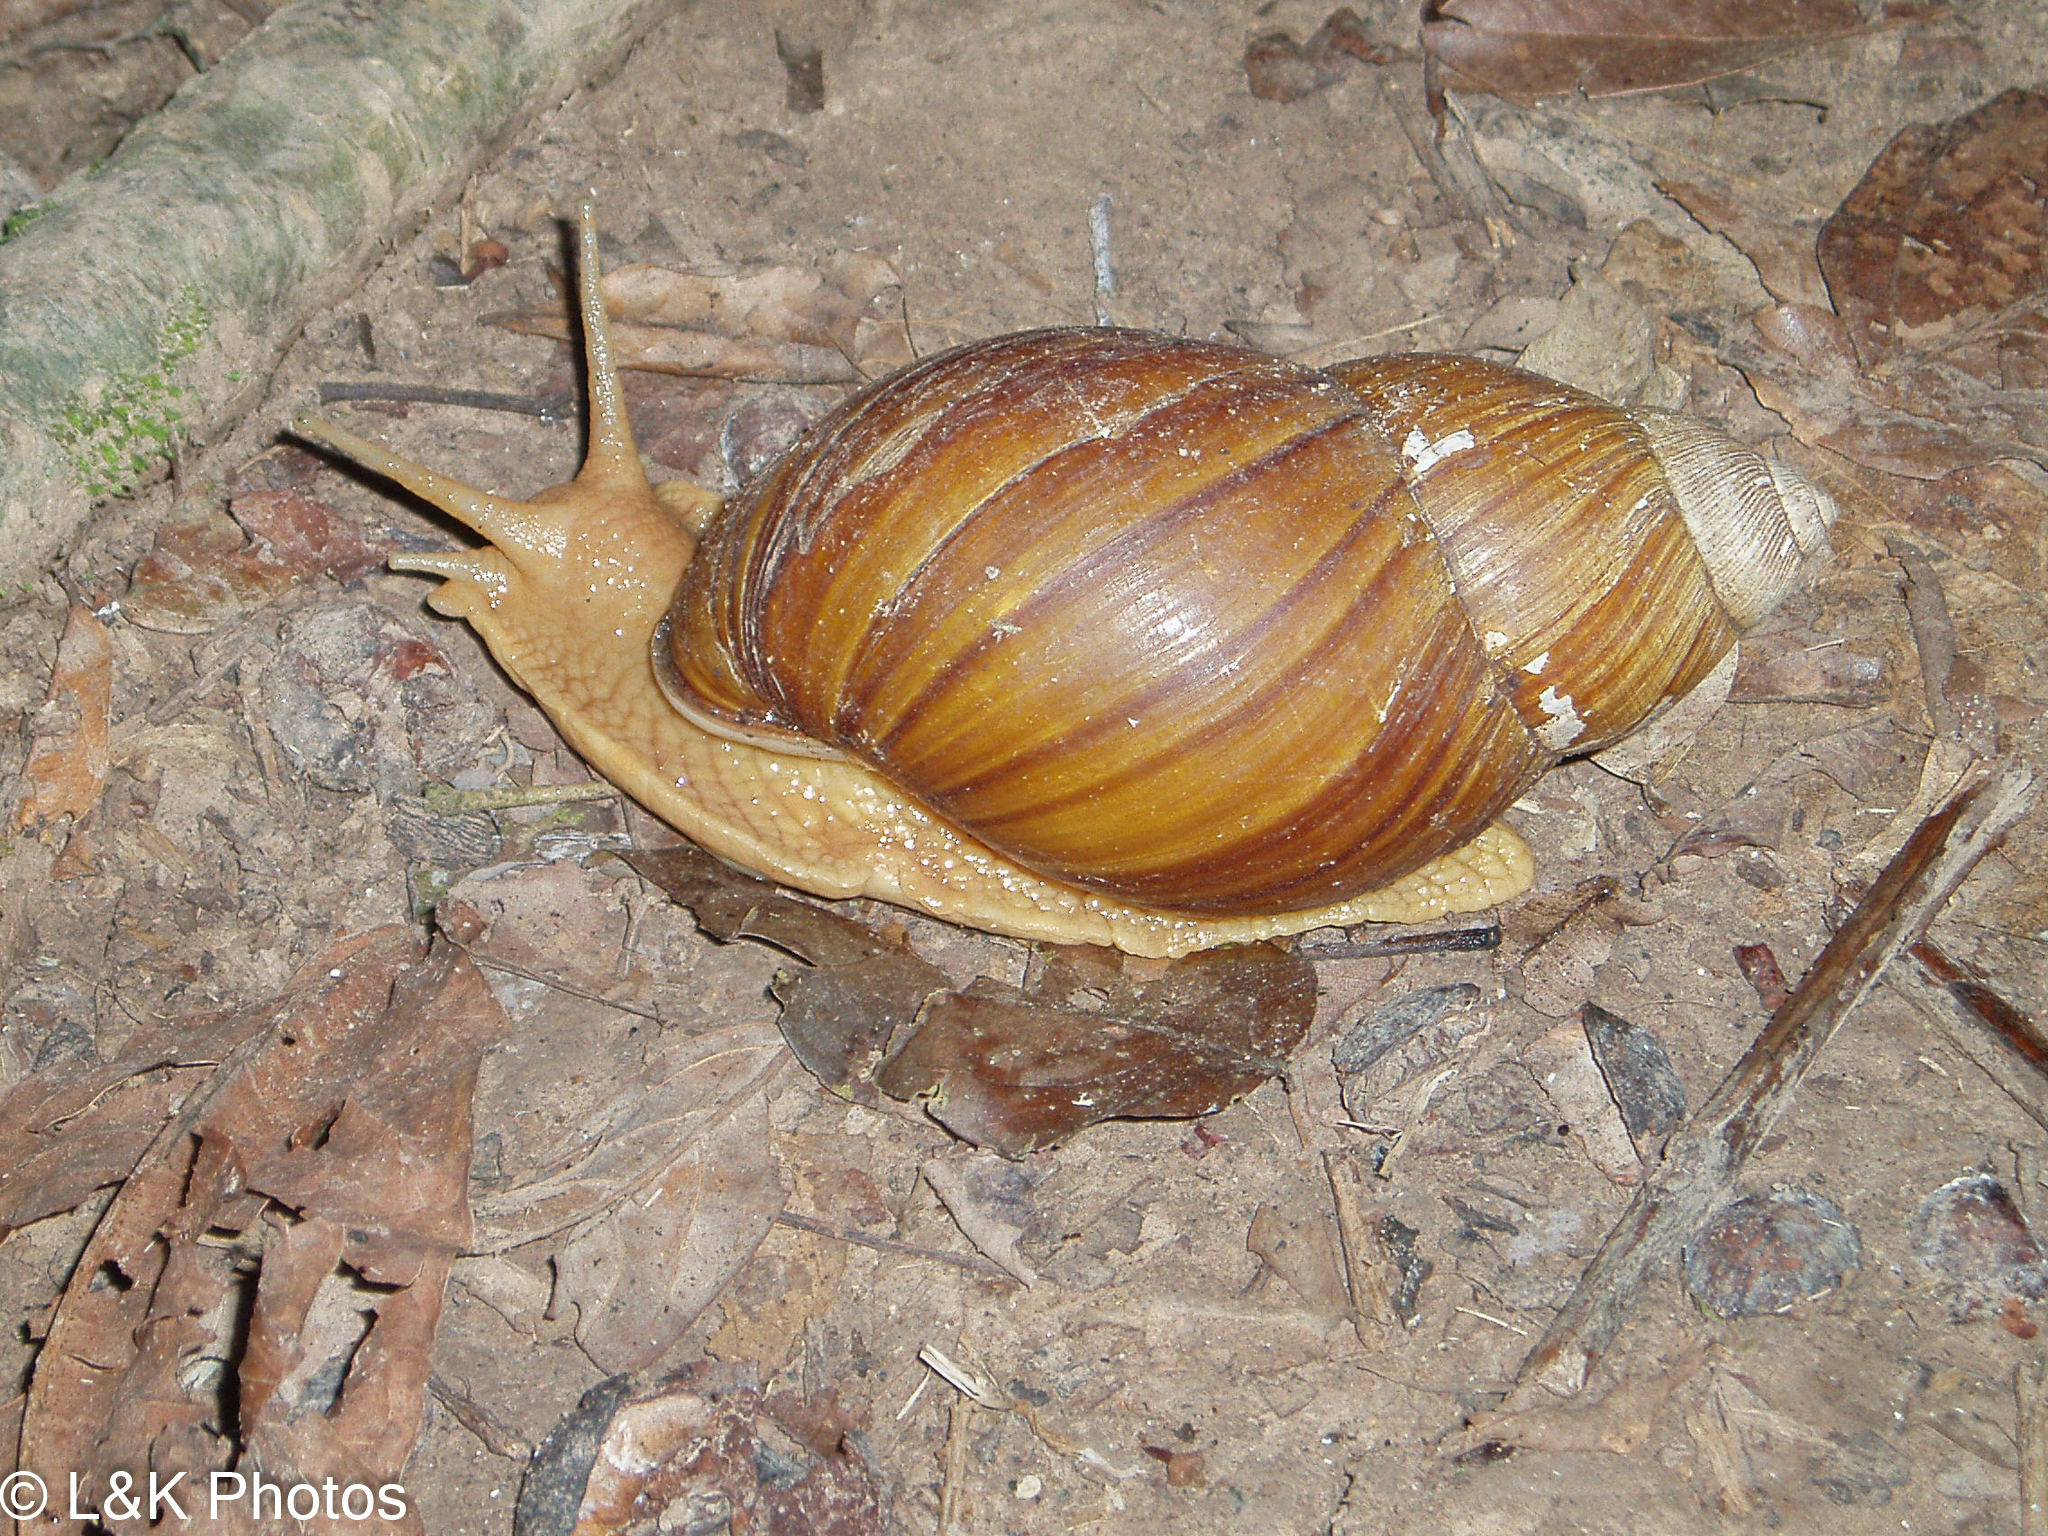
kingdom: Animalia
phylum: Mollusca
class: Gastropoda
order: Stylommatophora
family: Strophocheilidae
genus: Megalobulimus
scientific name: Megalobulimus
